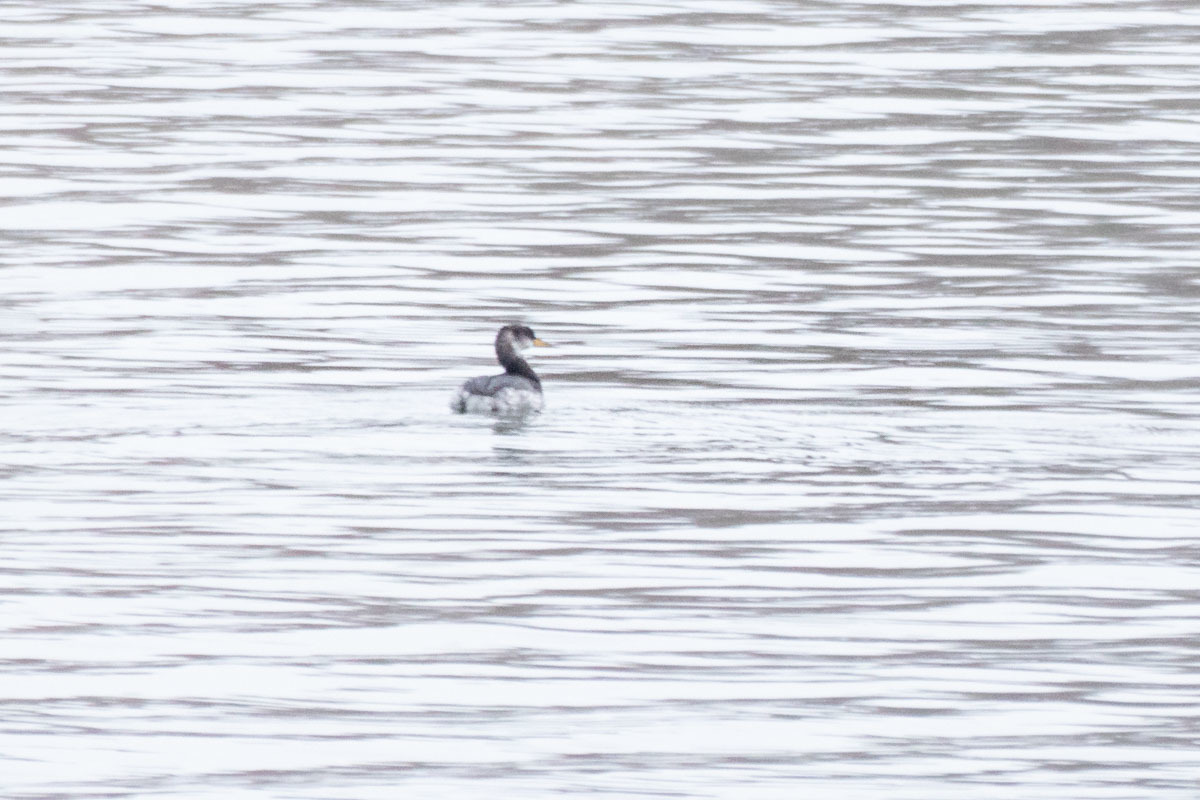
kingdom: Animalia
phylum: Chordata
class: Aves
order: Podicipediformes
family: Podicipedidae
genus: Podiceps
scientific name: Podiceps grisegena
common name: Red-necked grebe
